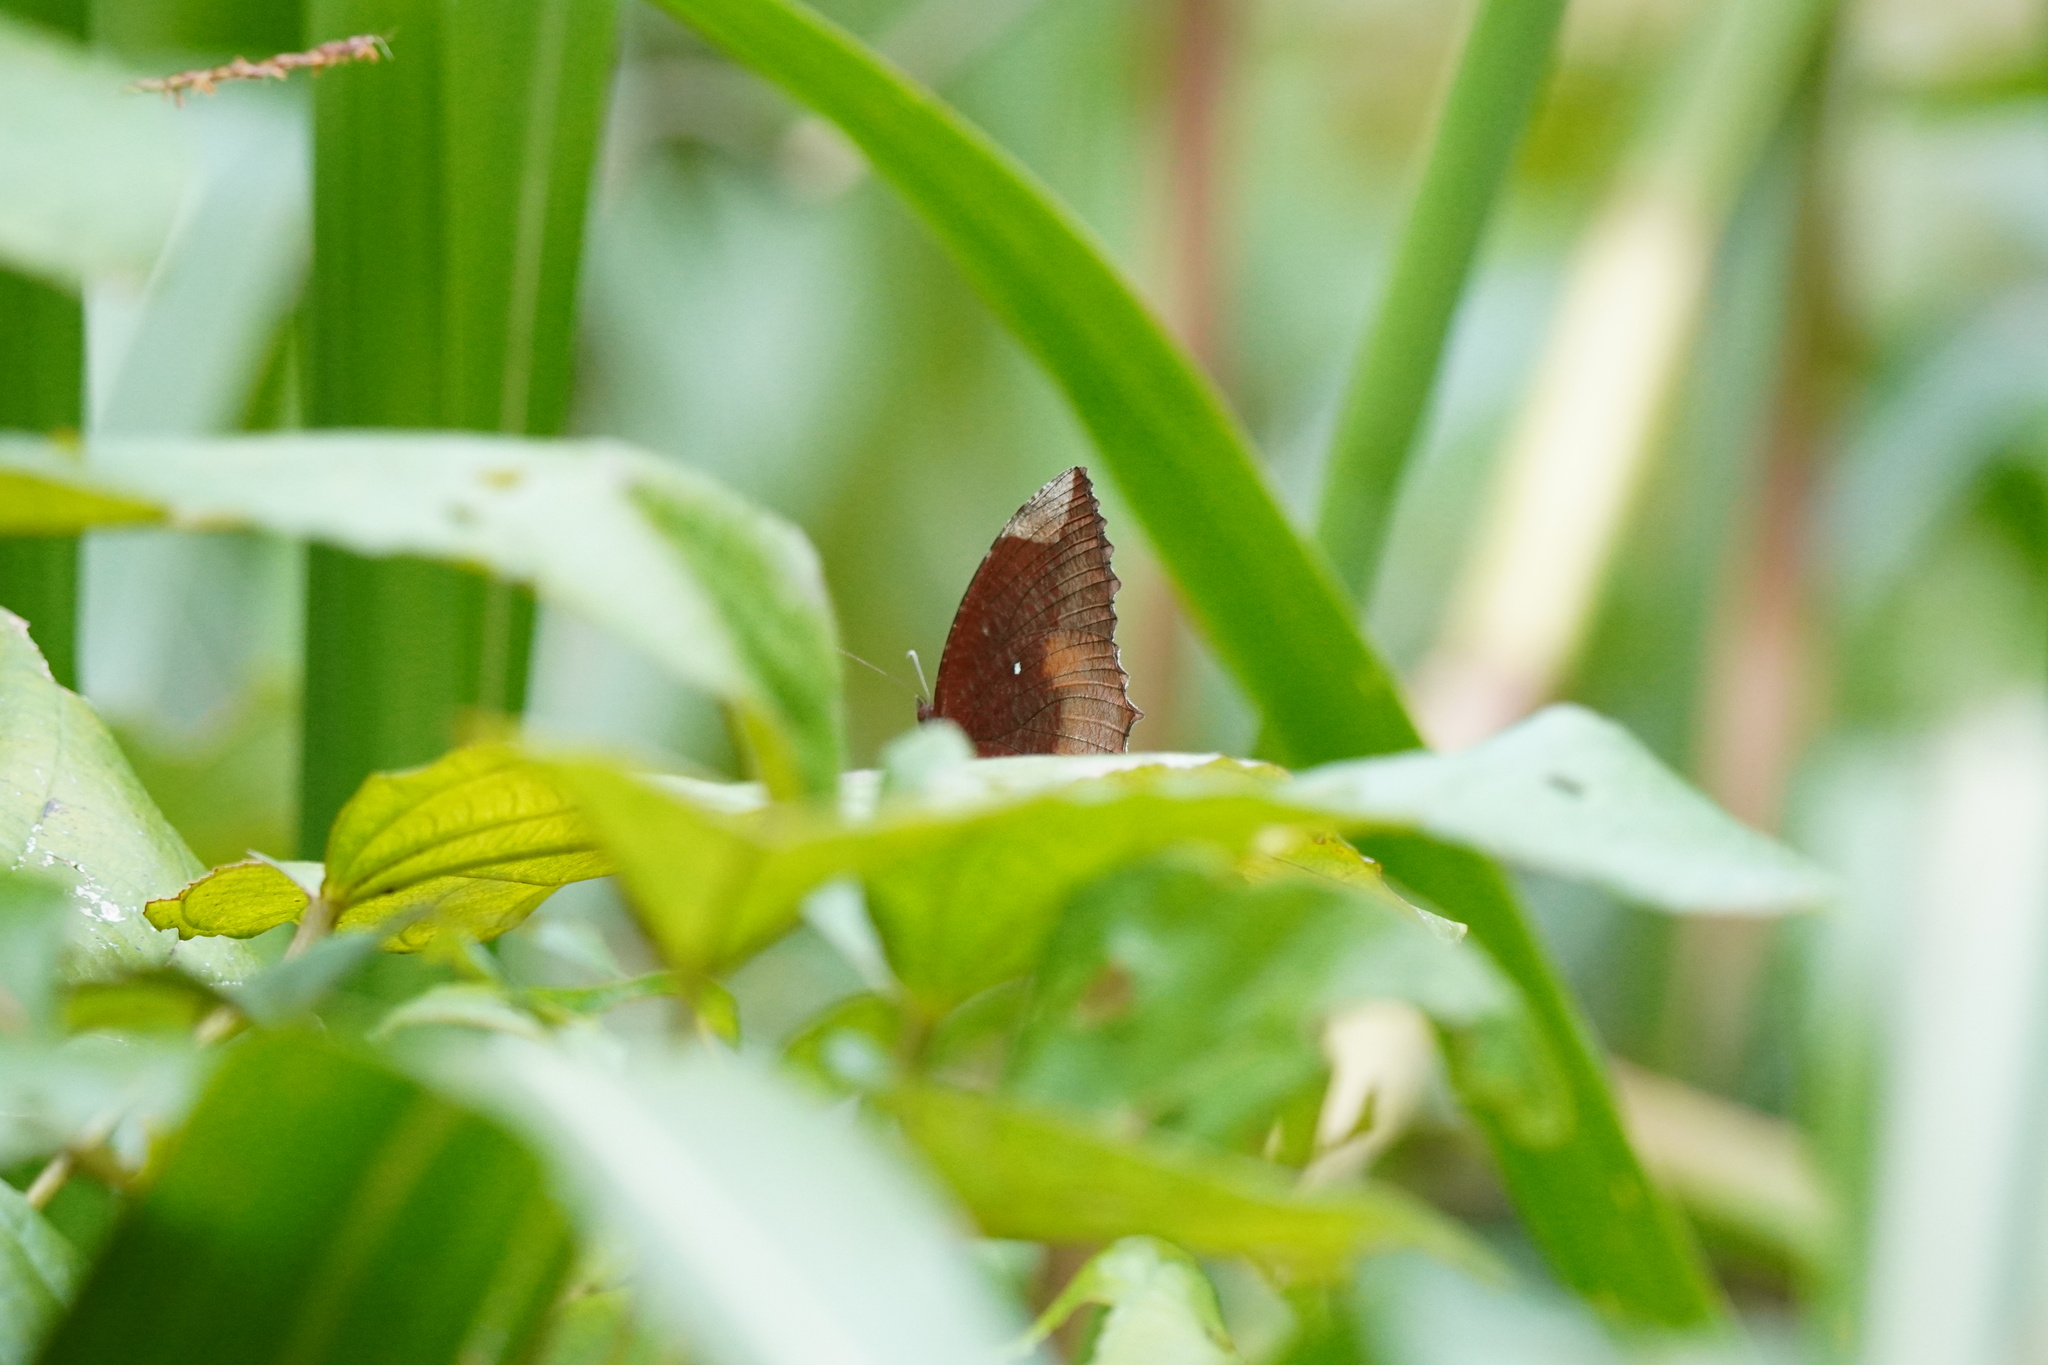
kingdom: Animalia
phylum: Arthropoda
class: Insecta
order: Lepidoptera
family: Nymphalidae
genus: Elymnias
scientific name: Elymnias hypermnestra
